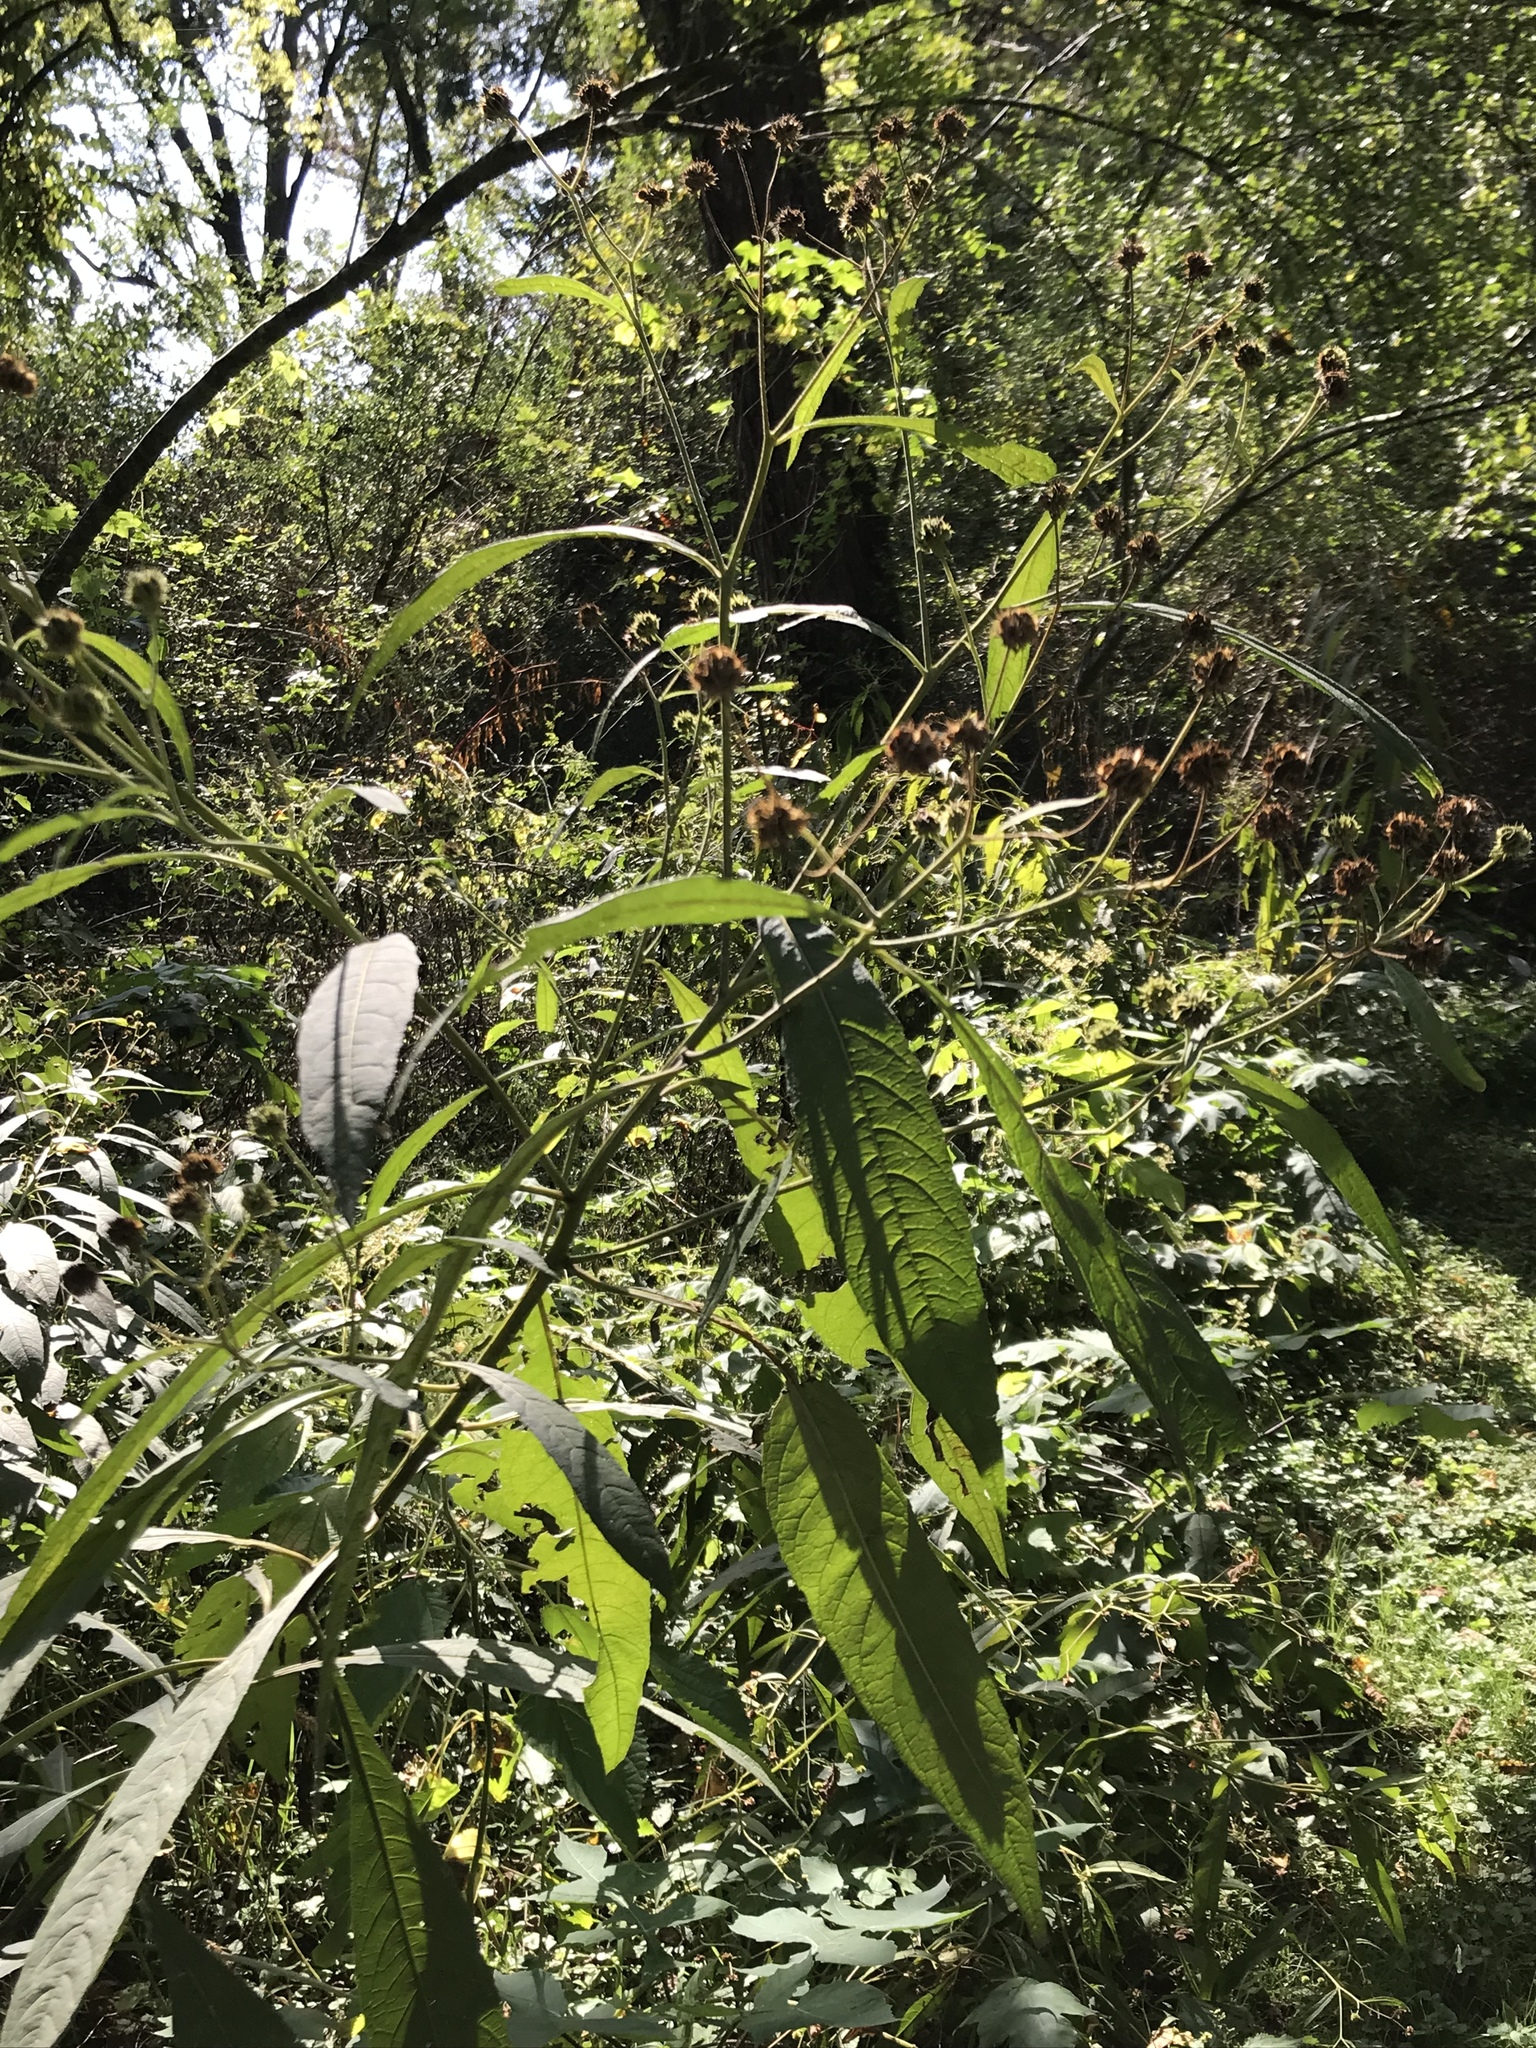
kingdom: Plantae
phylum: Tracheophyta
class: Magnoliopsida
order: Asterales
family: Asteraceae
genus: Verbesina
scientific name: Verbesina alternifolia
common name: Wingstem
